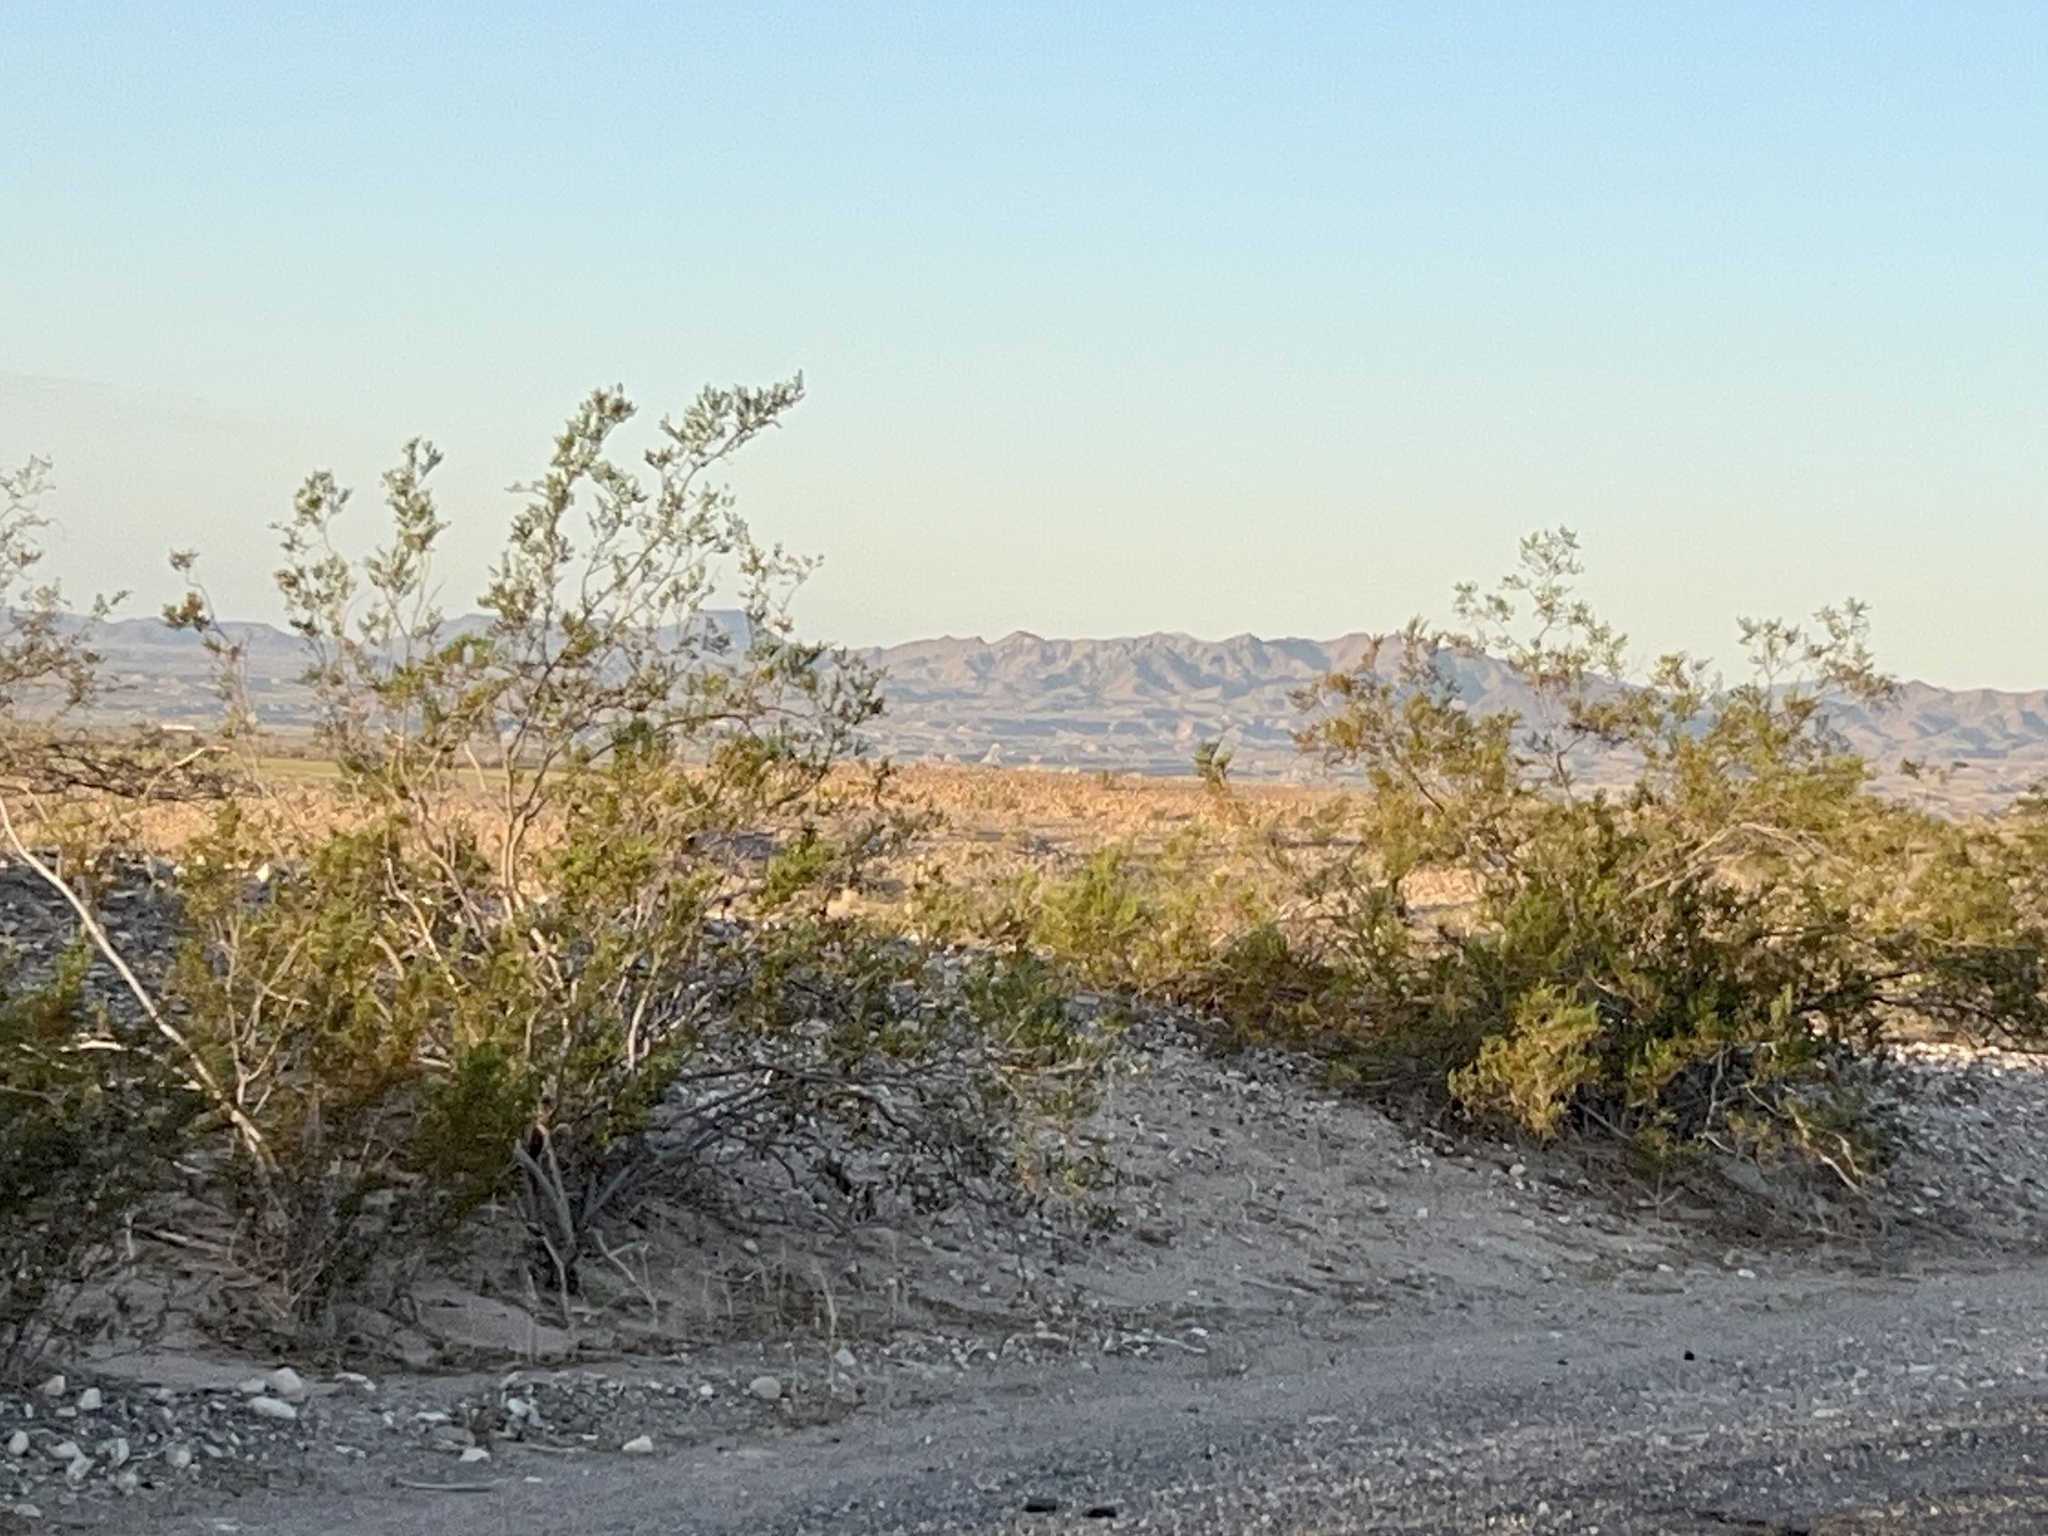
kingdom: Plantae
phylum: Tracheophyta
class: Magnoliopsida
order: Zygophyllales
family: Zygophyllaceae
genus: Larrea
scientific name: Larrea tridentata
